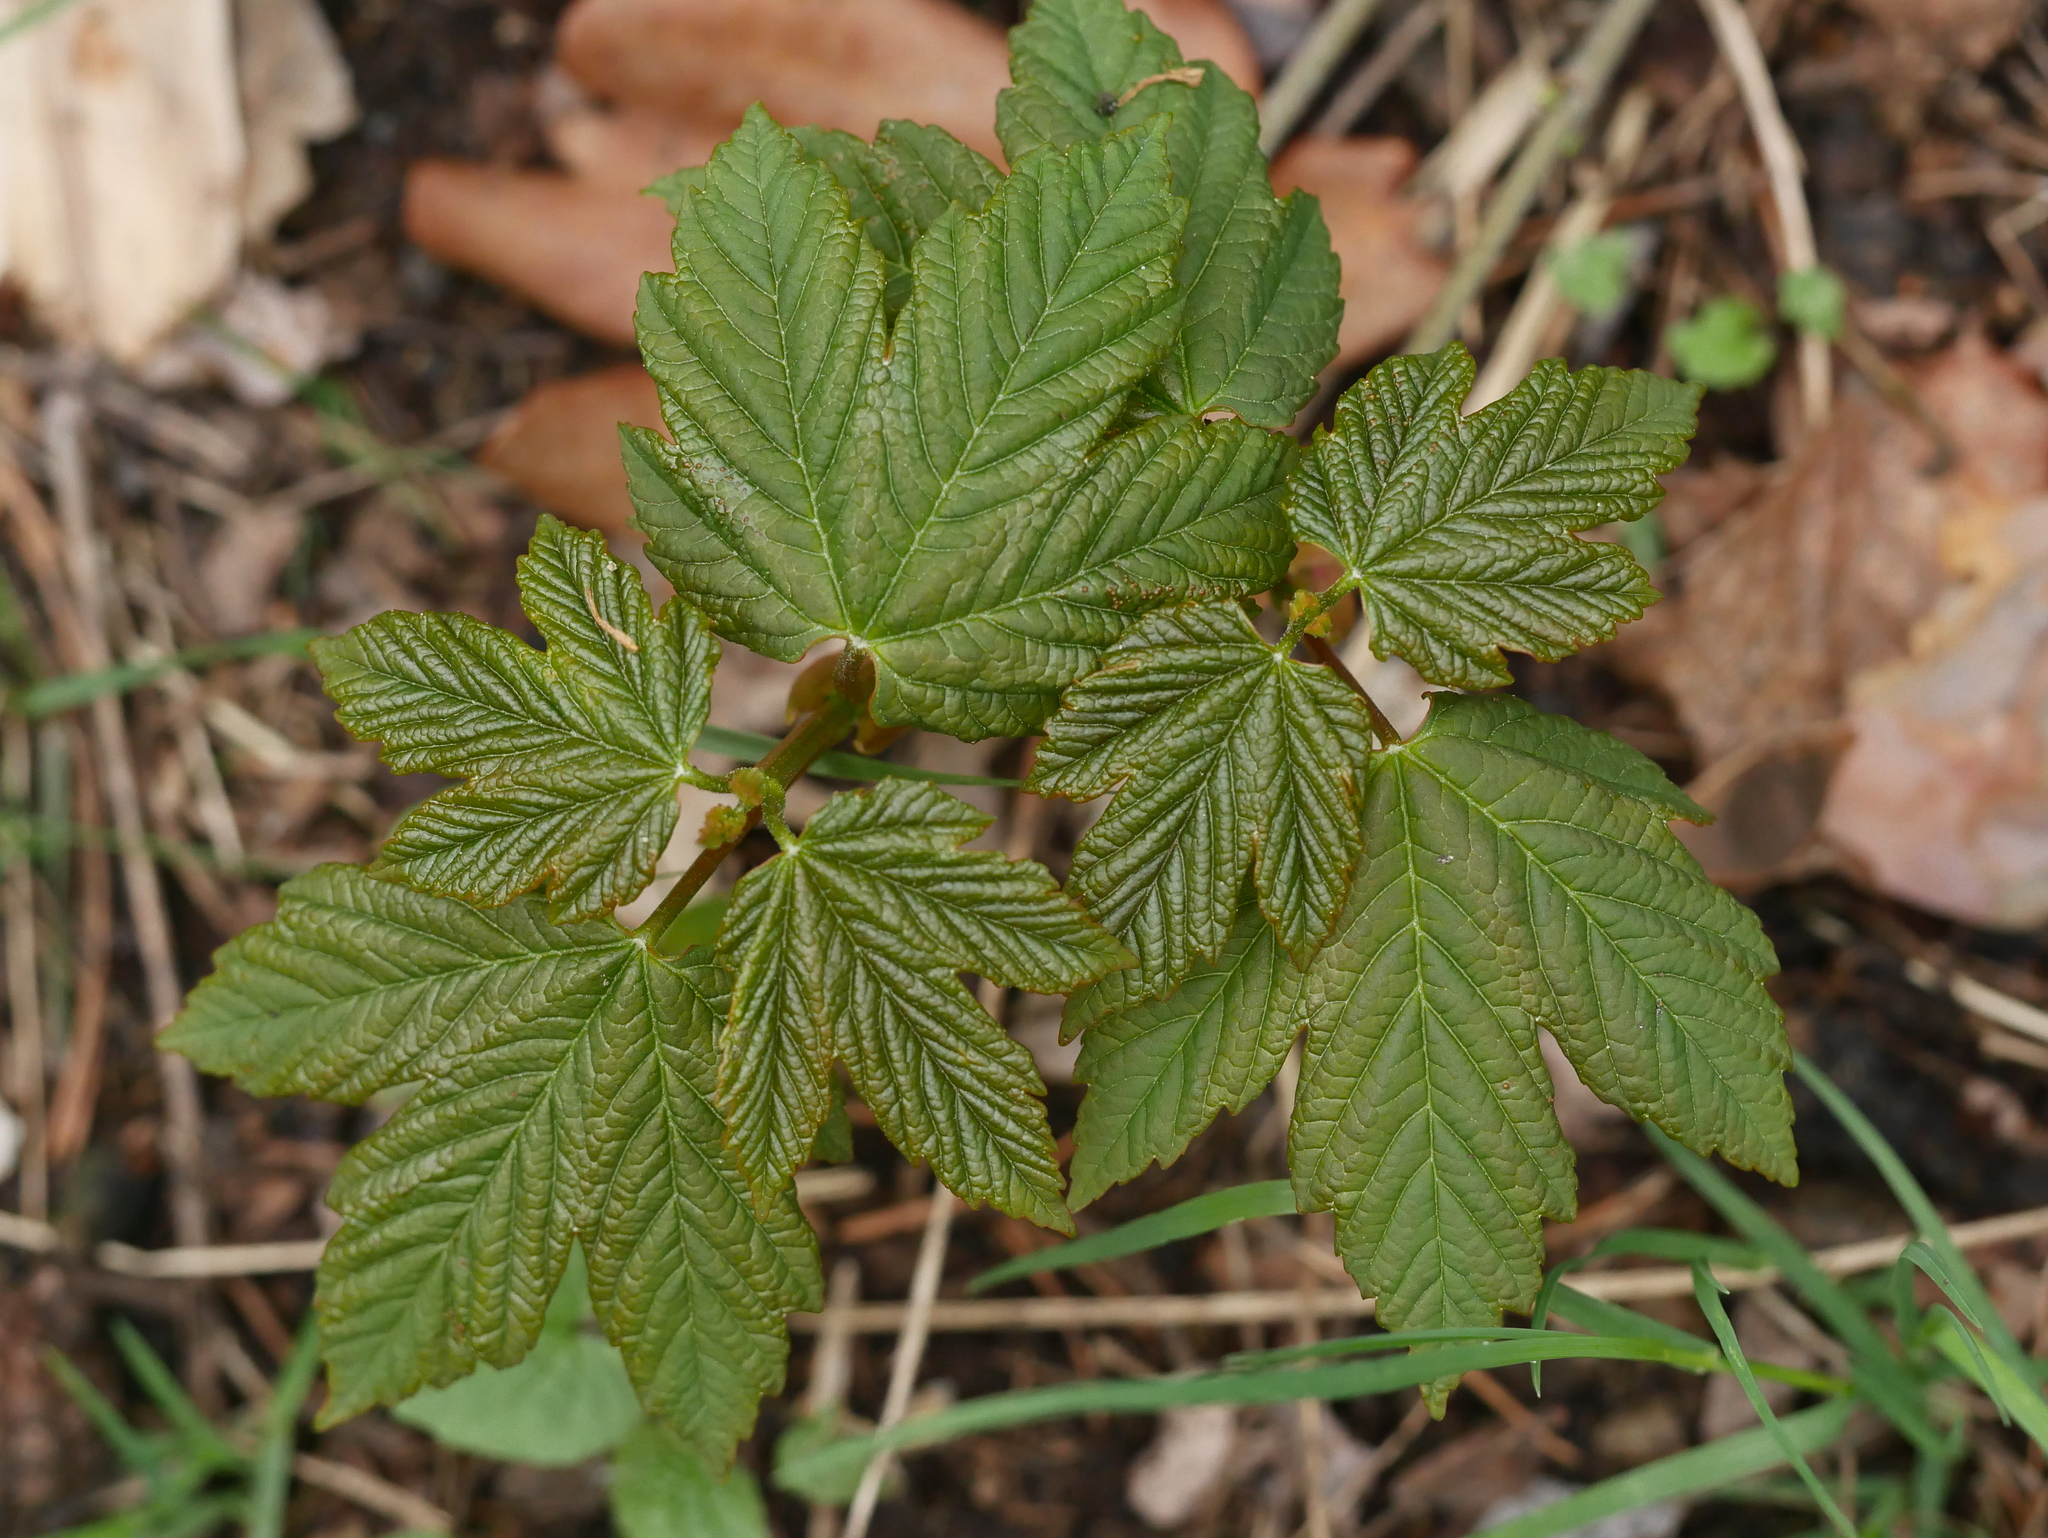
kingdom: Plantae
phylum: Tracheophyta
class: Magnoliopsida
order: Sapindales
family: Sapindaceae
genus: Acer
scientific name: Acer pseudoplatanus
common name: Sycamore
